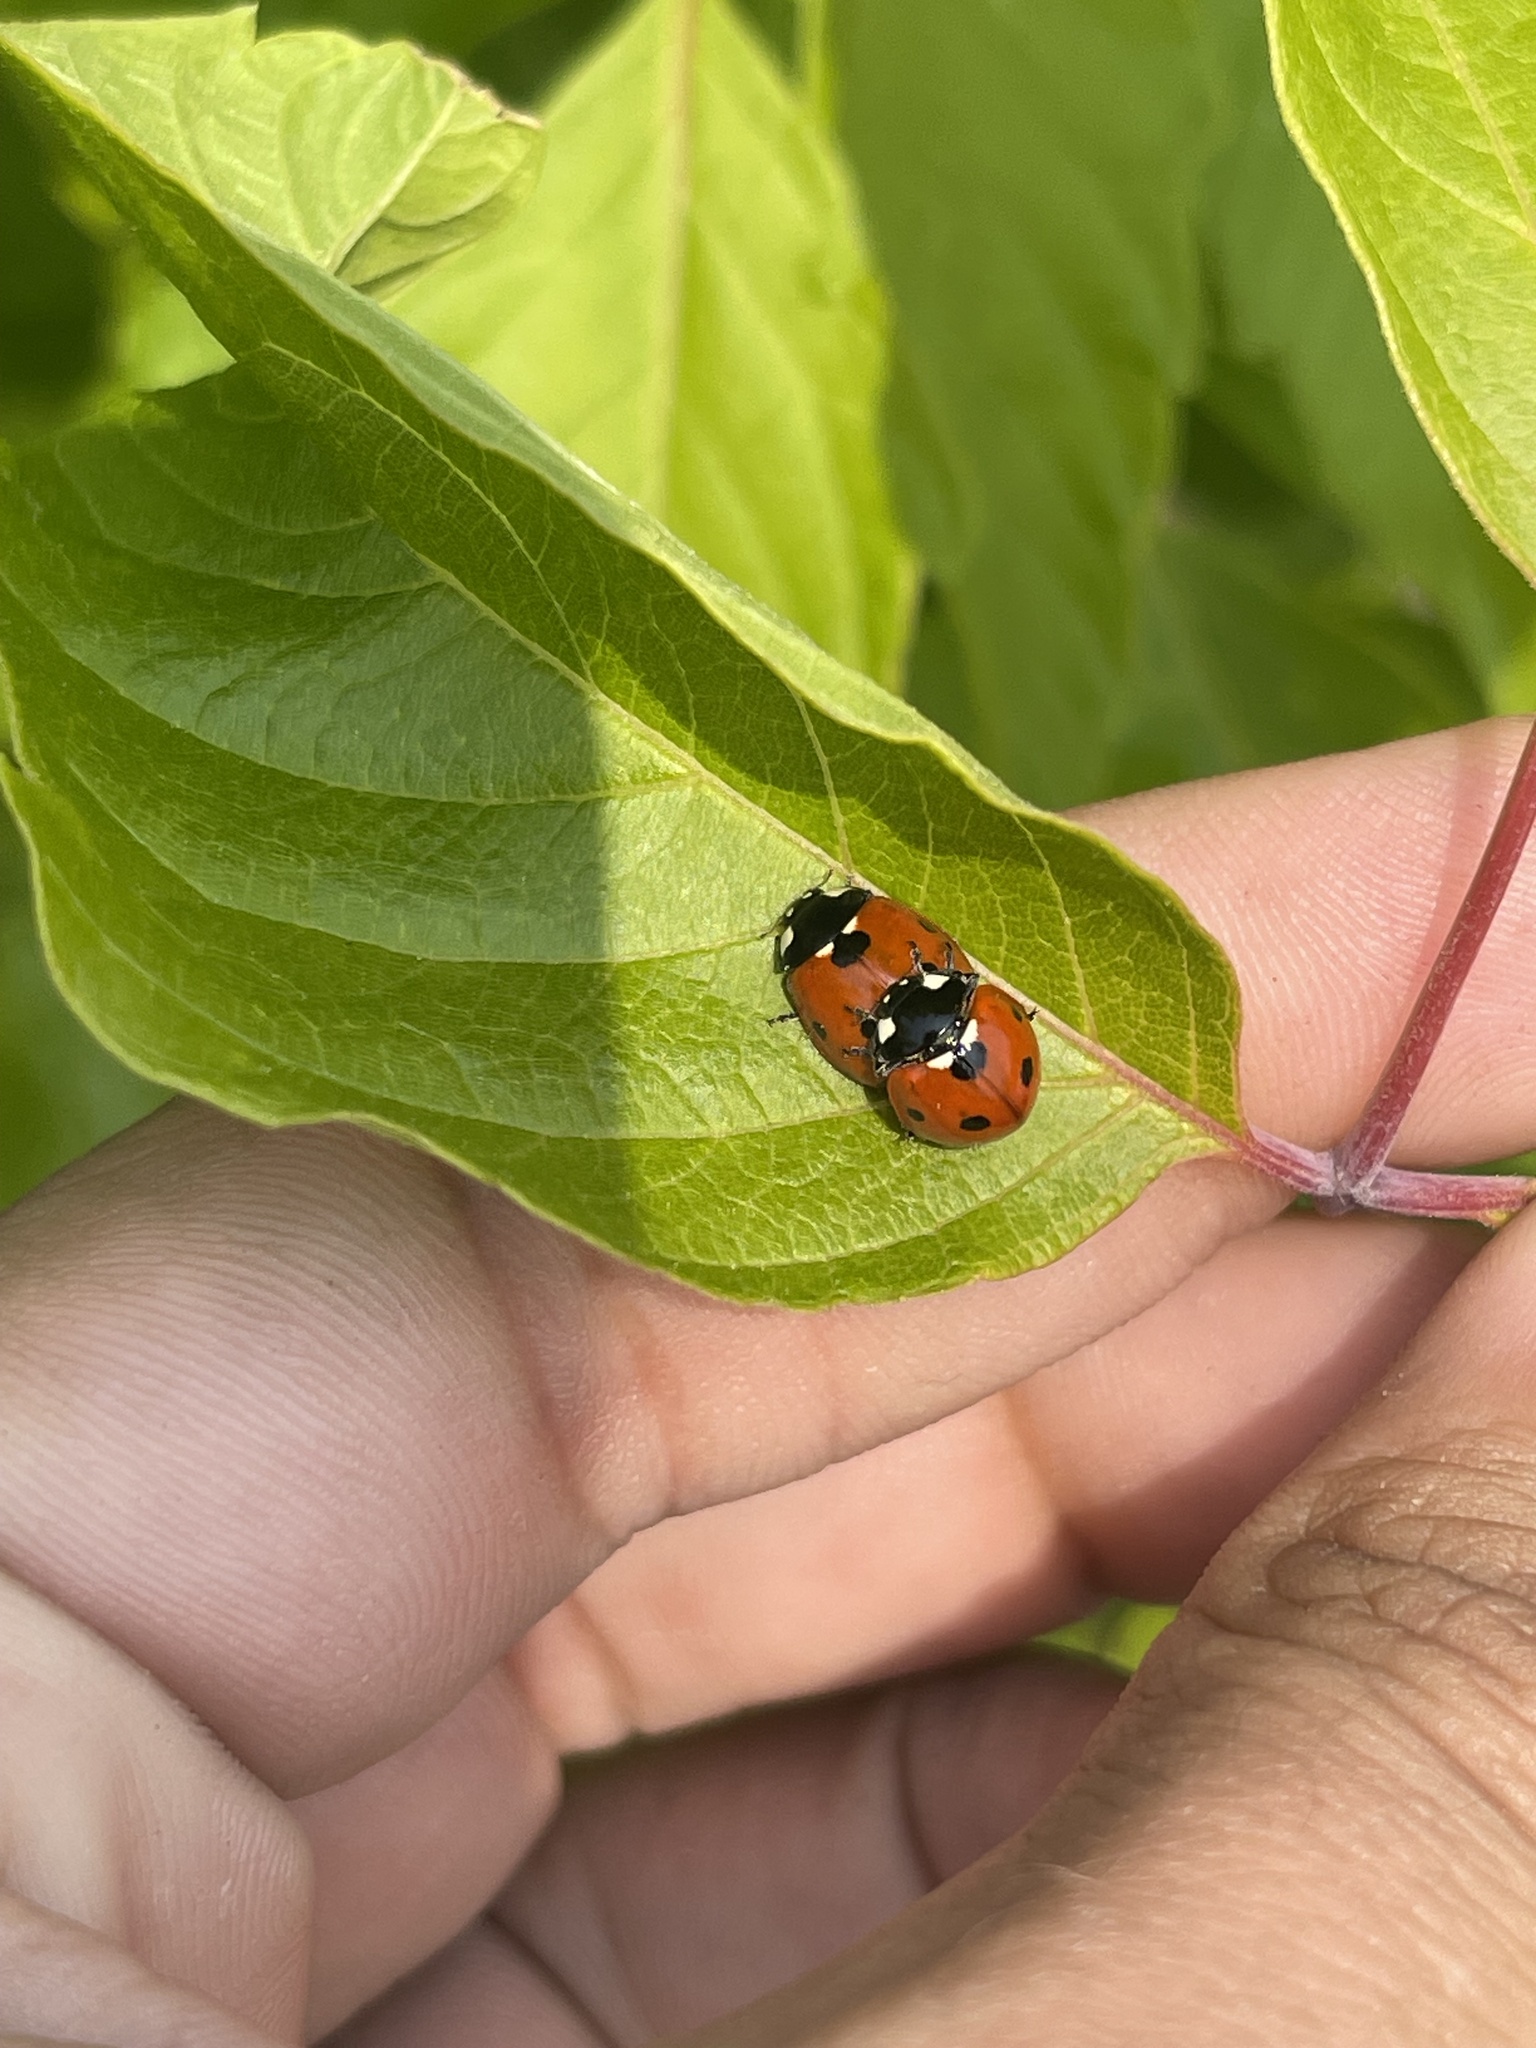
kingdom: Animalia
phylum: Arthropoda
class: Insecta
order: Coleoptera
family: Coccinellidae
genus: Coccinella
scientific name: Coccinella septempunctata
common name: Sevenspotted lady beetle
